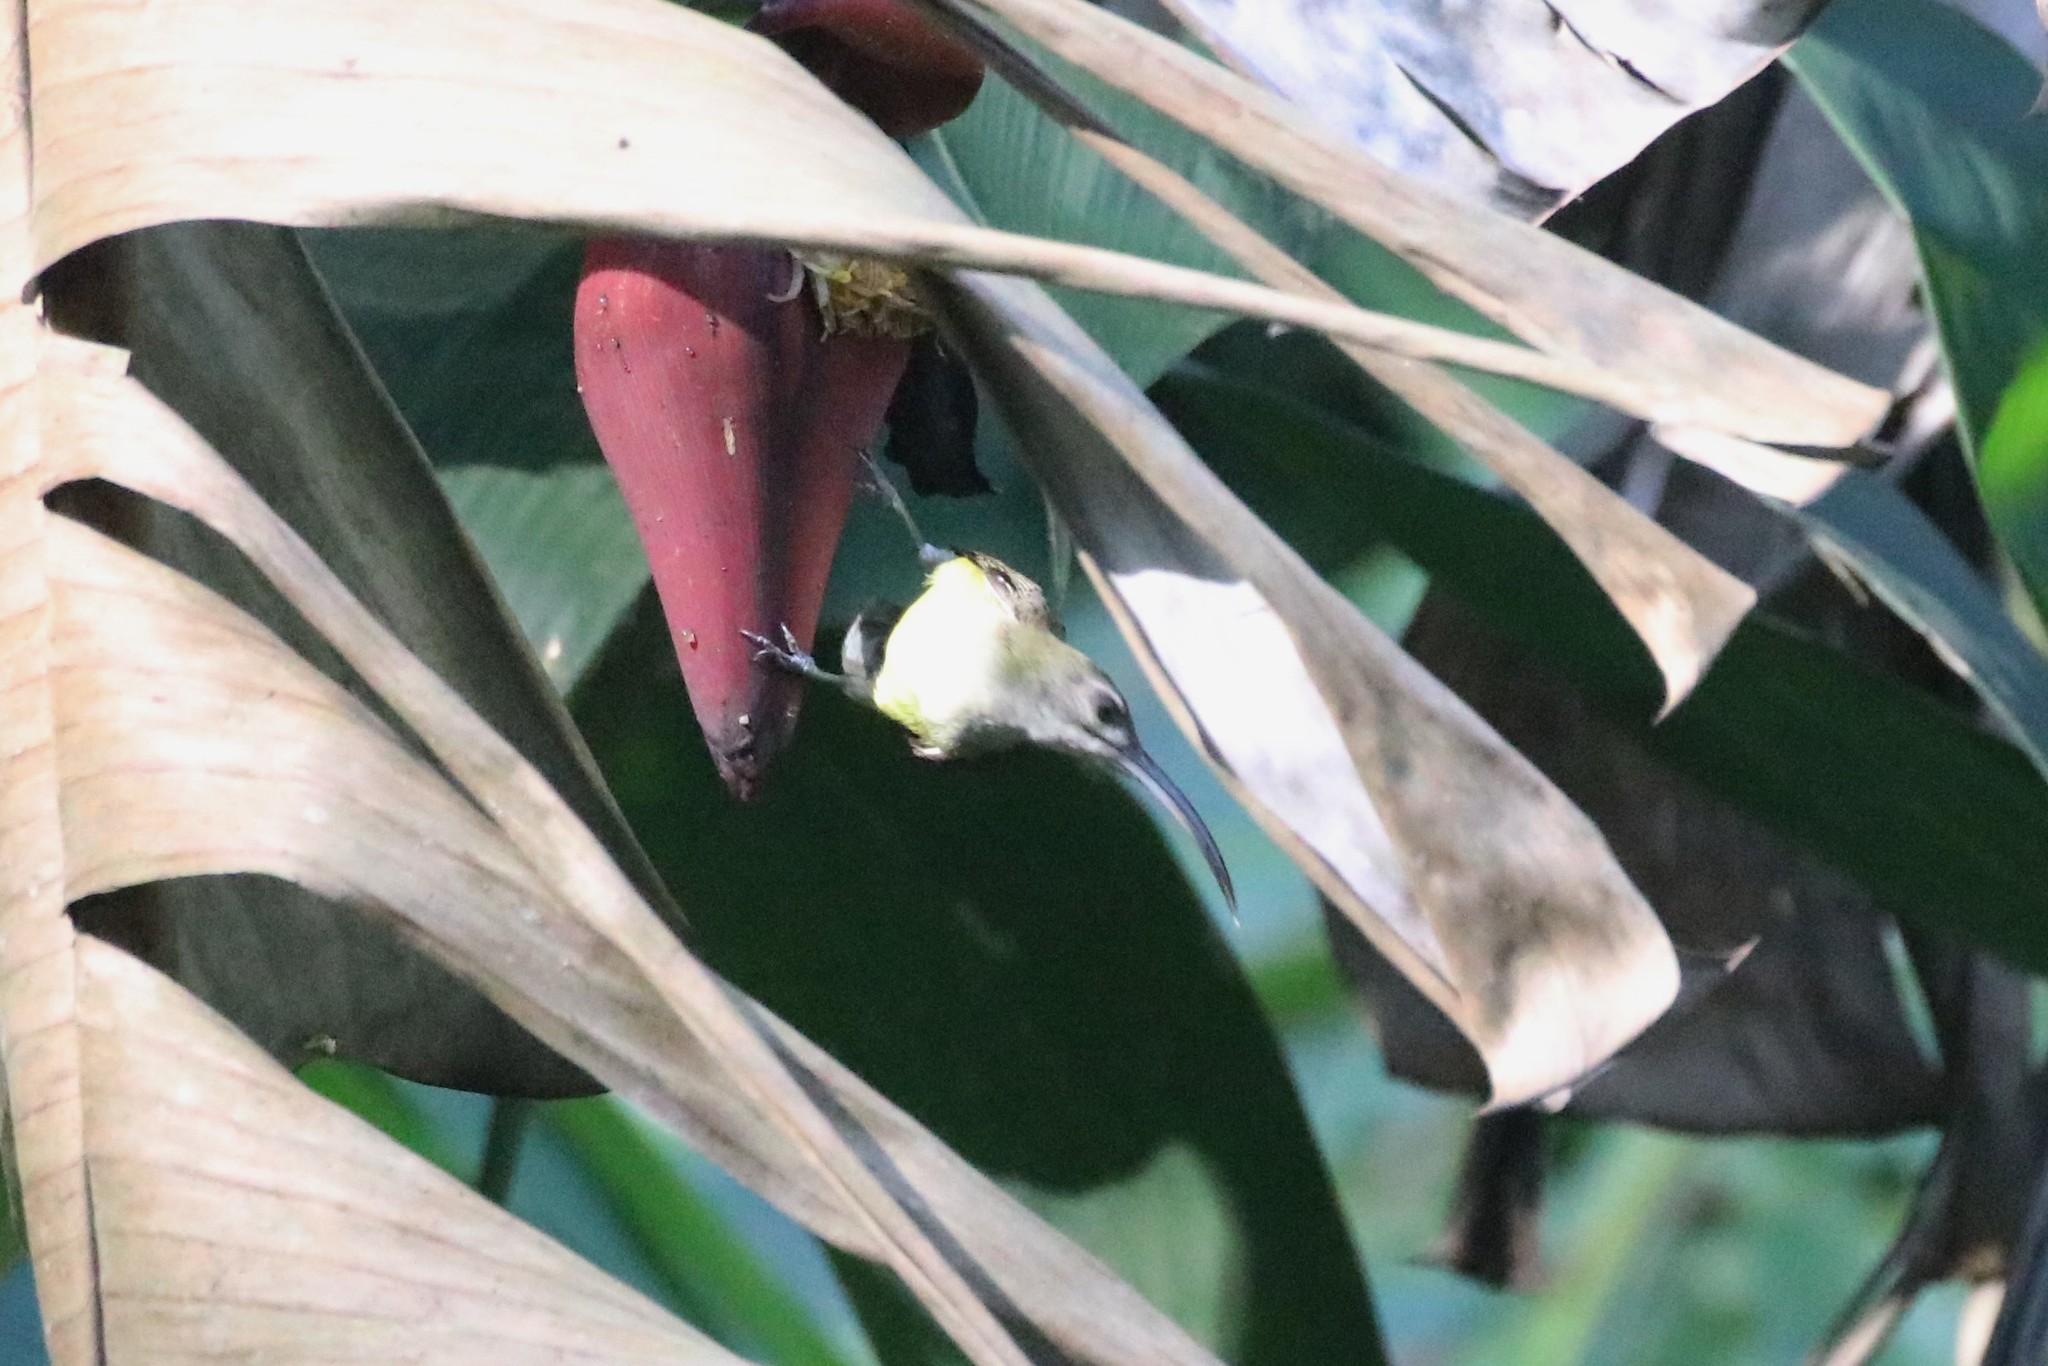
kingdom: Animalia
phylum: Chordata
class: Aves
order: Passeriformes
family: Nectariniidae
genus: Arachnothera
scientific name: Arachnothera longirostra
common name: Little spiderhunter
